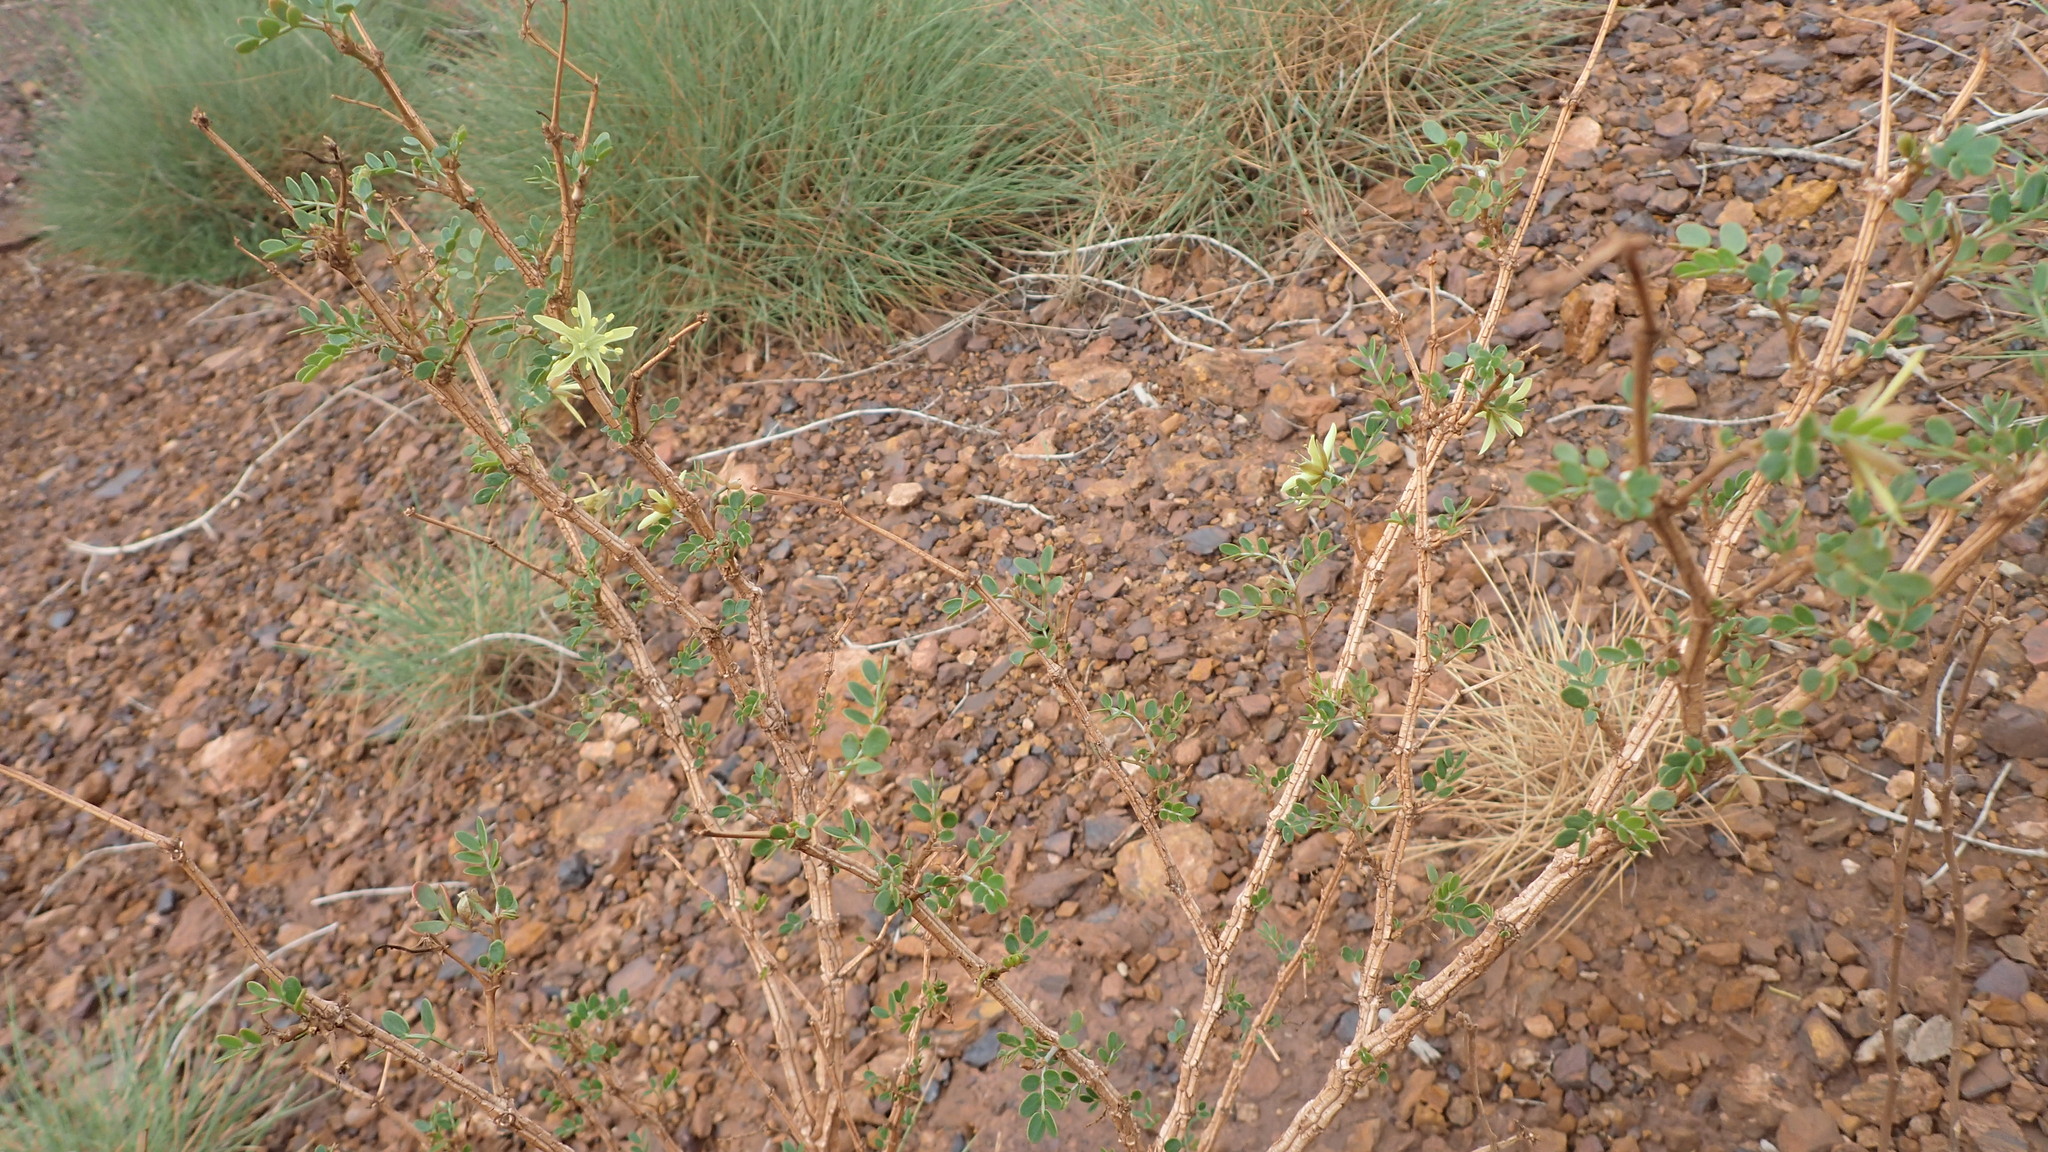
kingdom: Plantae
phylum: Tracheophyta
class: Magnoliopsida
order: Zygophyllales
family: Zygophyllaceae
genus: Tribulus
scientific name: Tribulus suberosus
